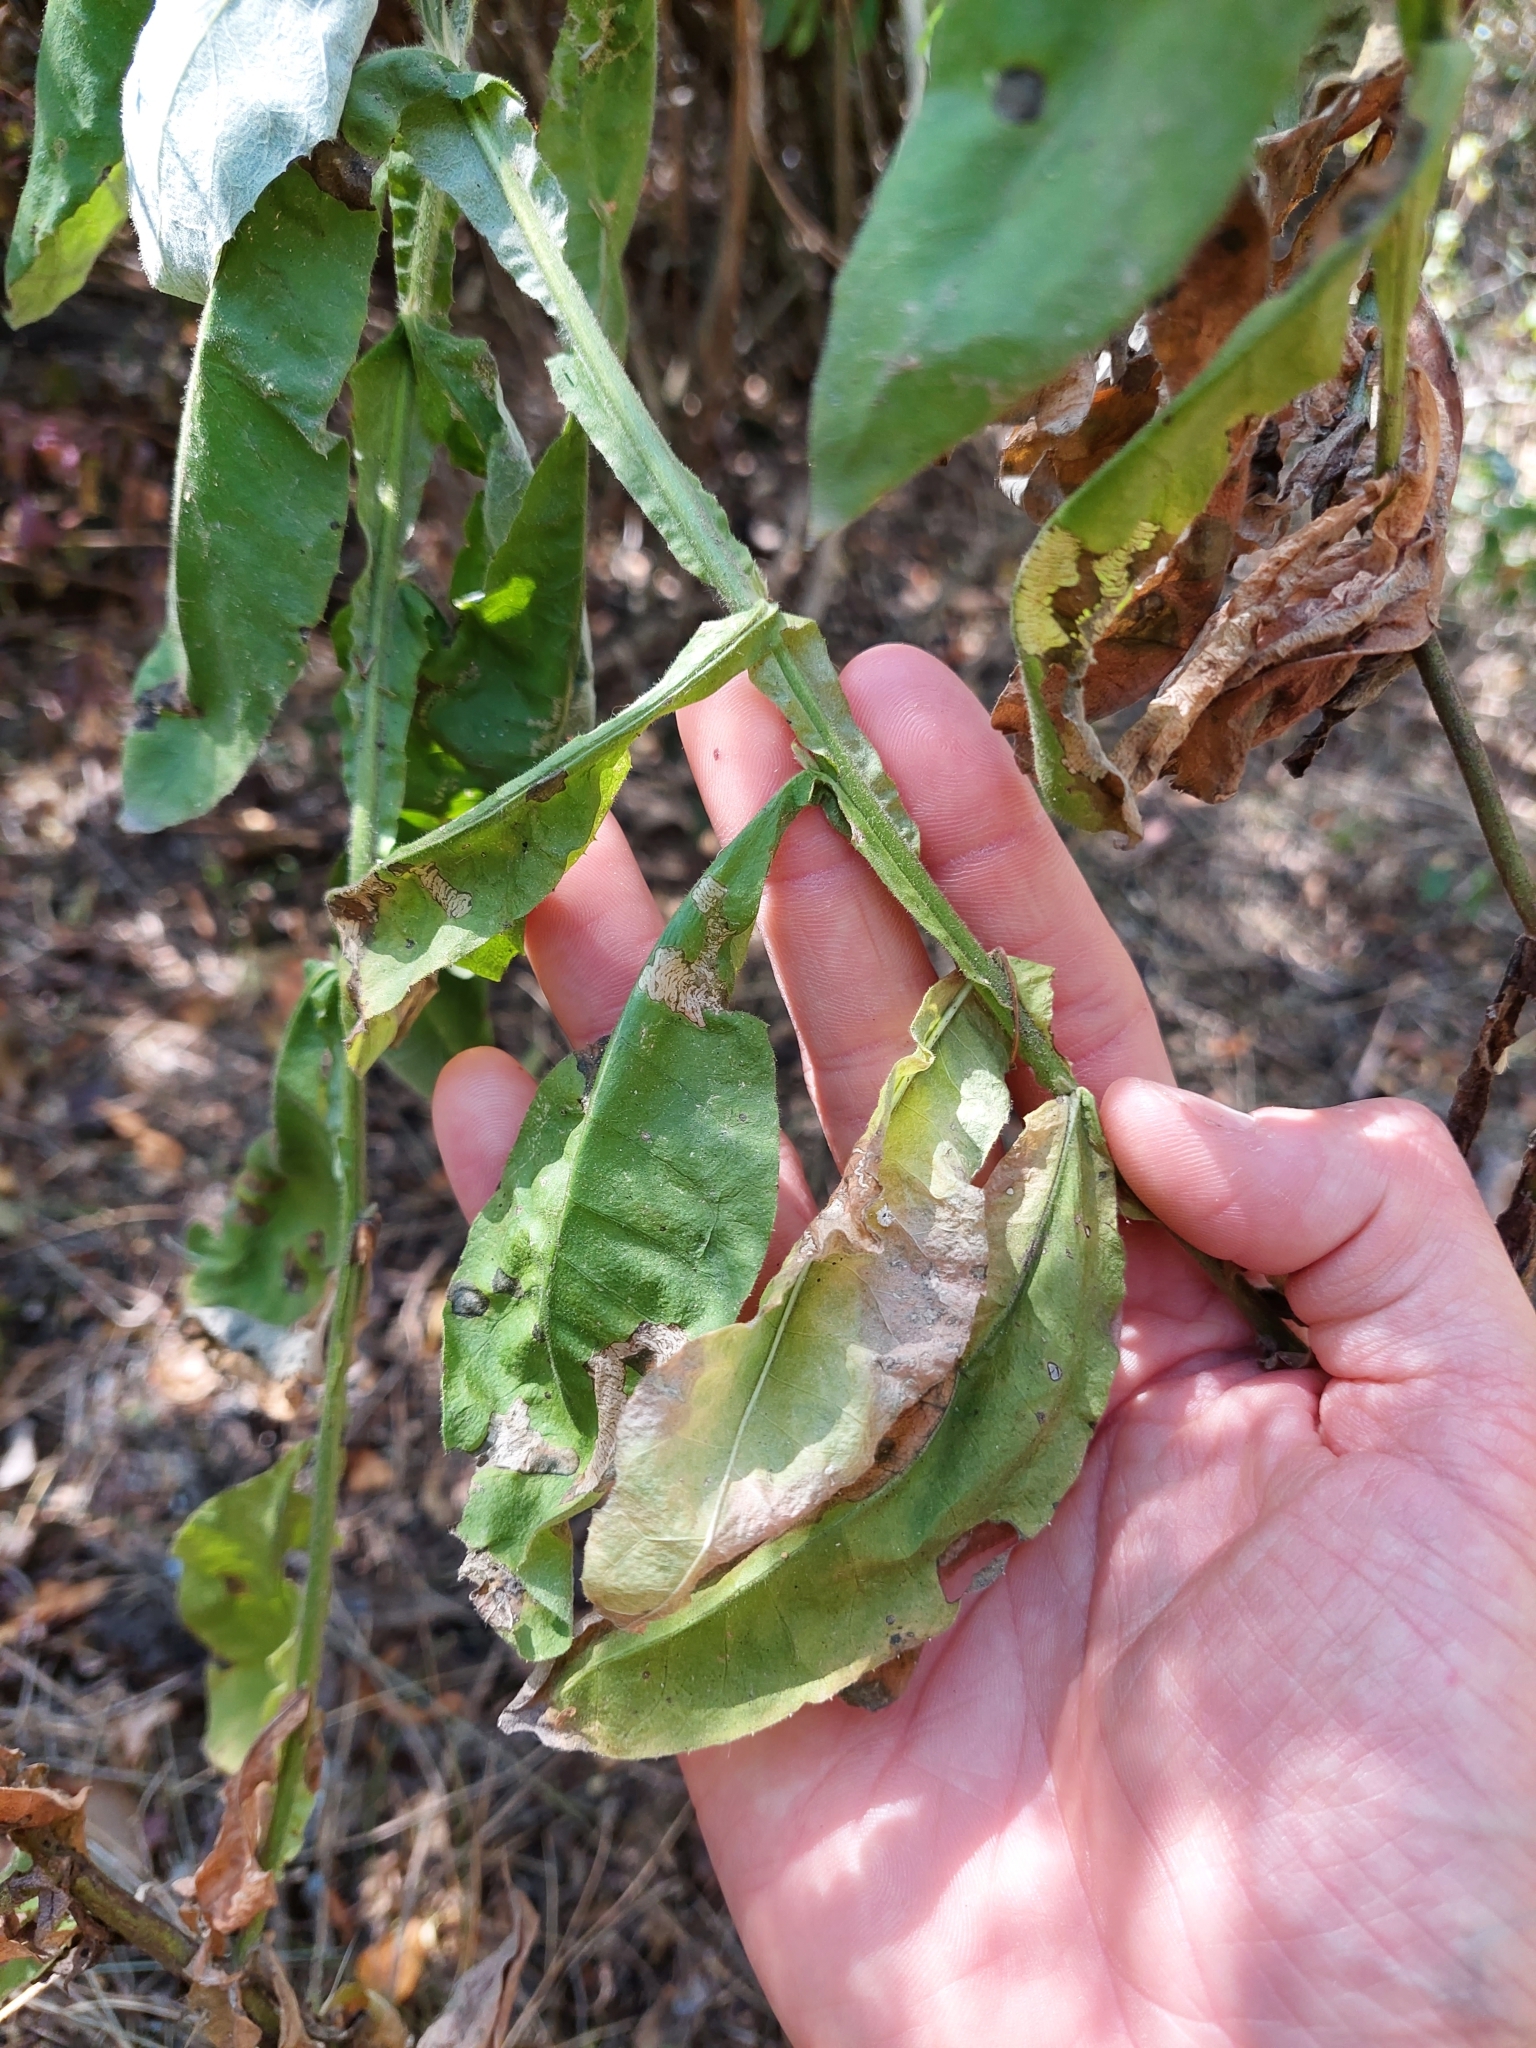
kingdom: Plantae
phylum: Tracheophyta
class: Magnoliopsida
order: Asterales
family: Asteraceae
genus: Trixis
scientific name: Trixis divaricata
